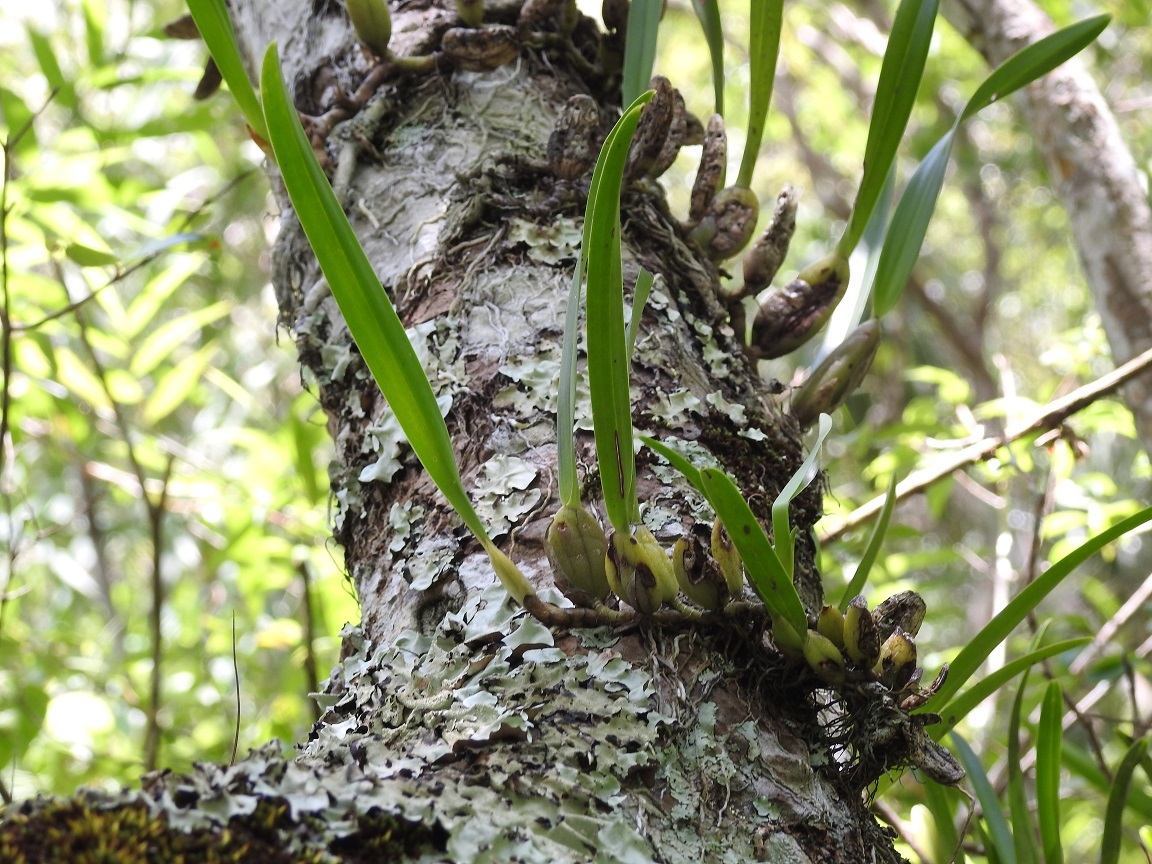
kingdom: Plantae
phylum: Tracheophyta
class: Liliopsida
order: Asparagales
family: Orchidaceae
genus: Nidema
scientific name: Nidema boothii
